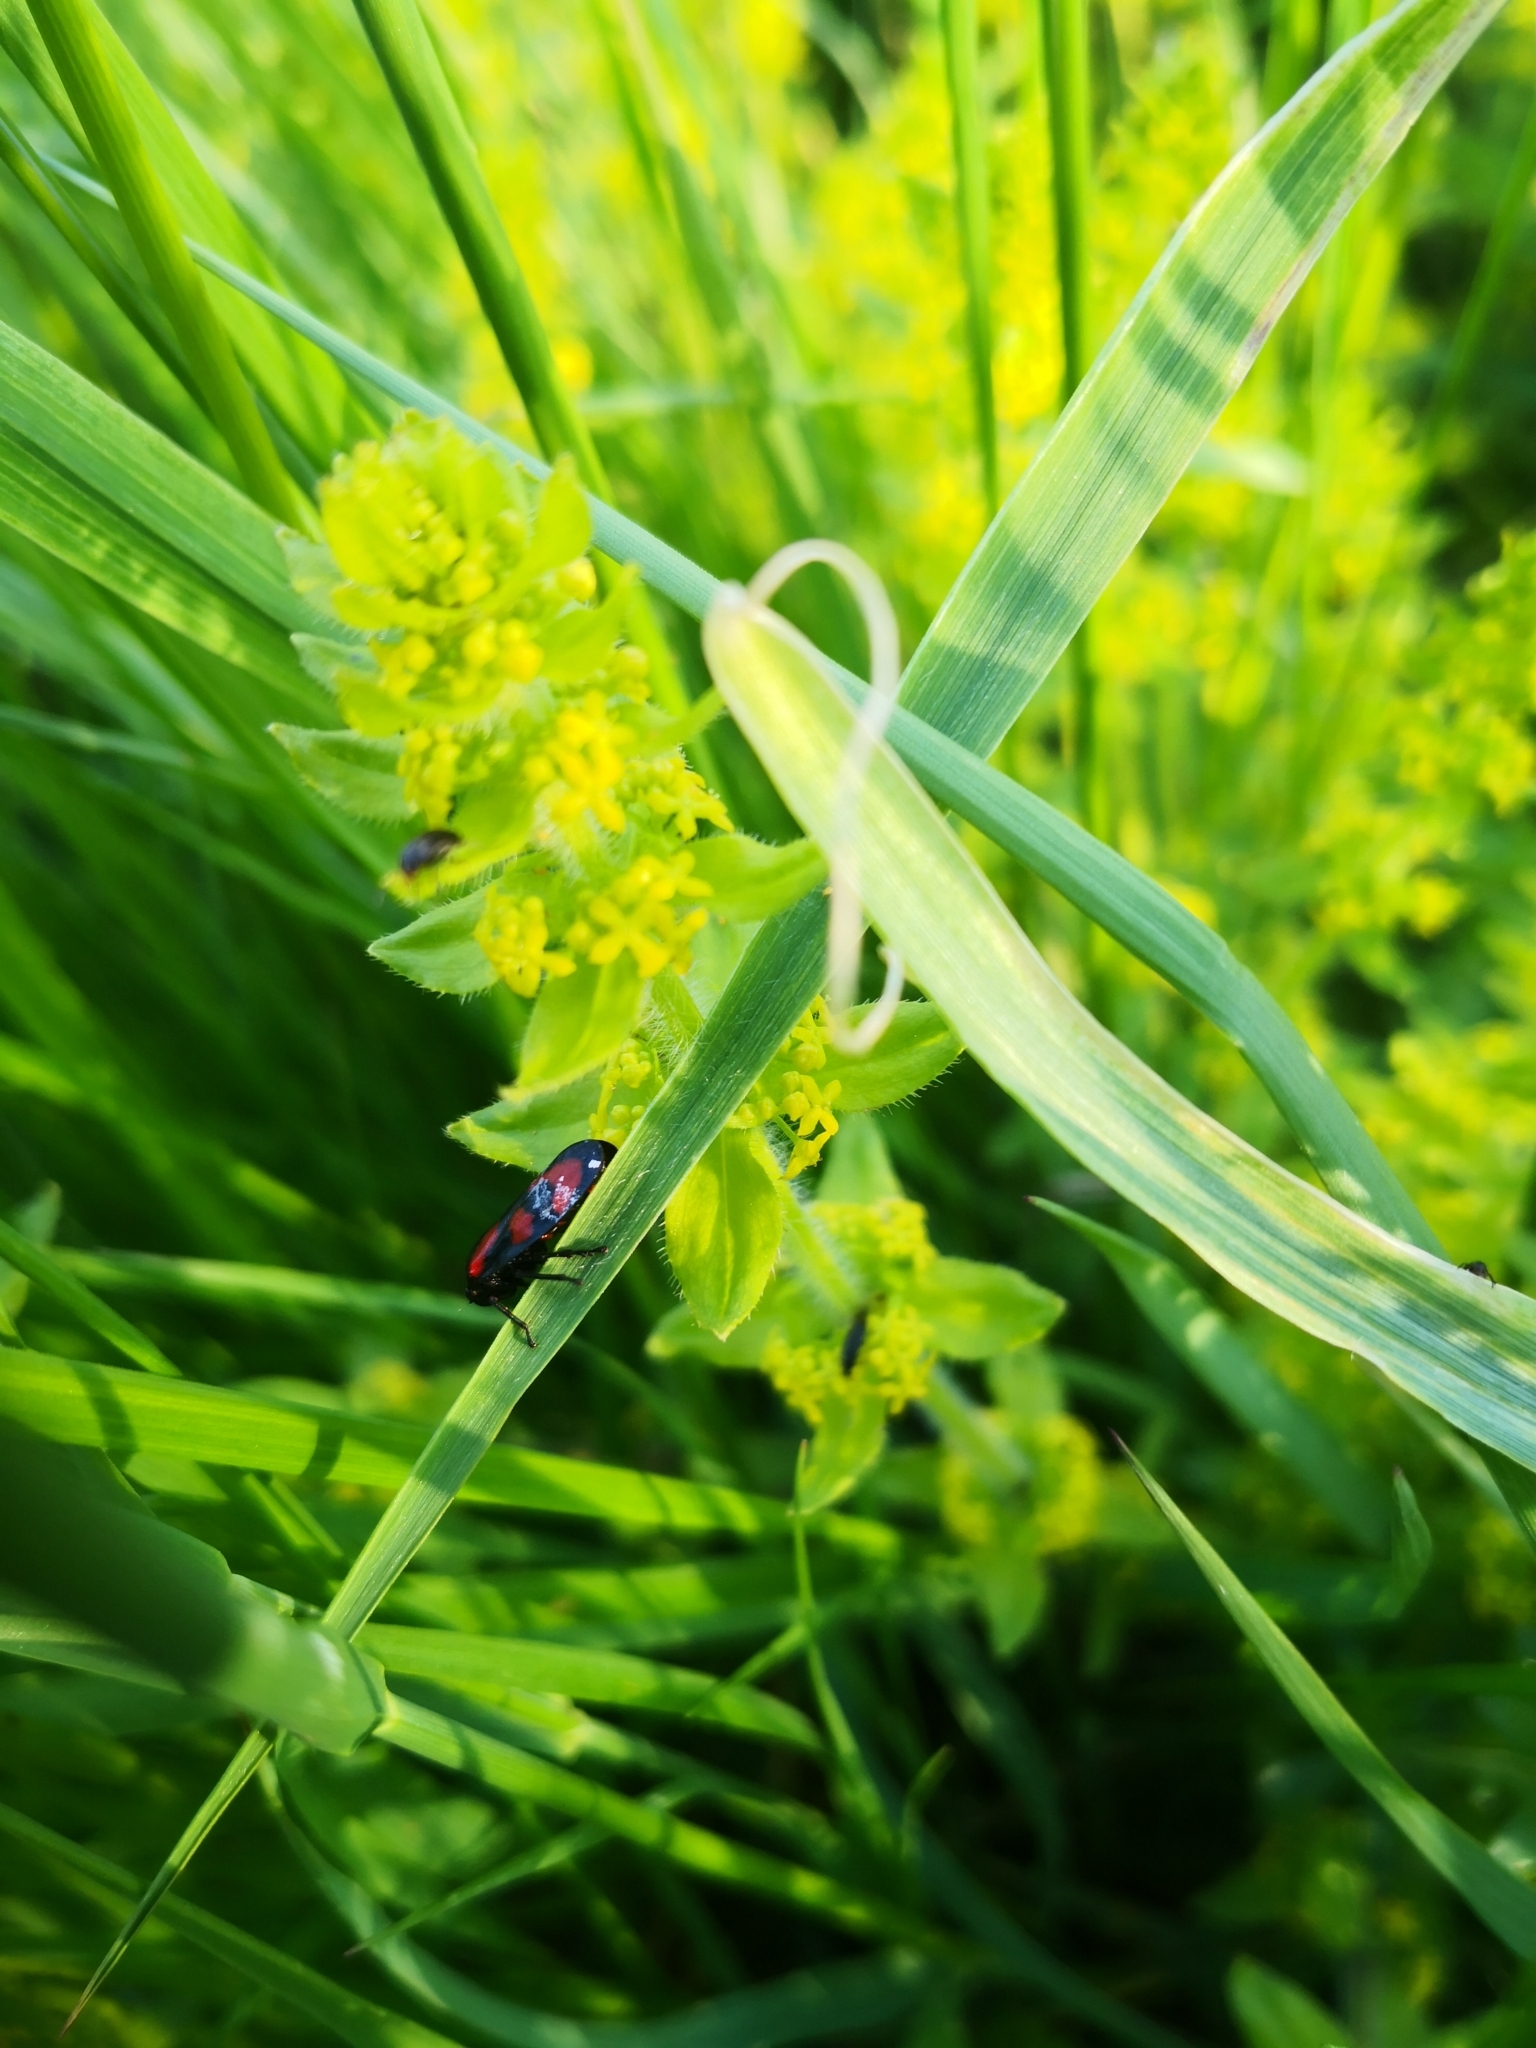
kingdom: Animalia
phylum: Arthropoda
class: Insecta
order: Hemiptera
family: Cercopidae
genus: Cercopis
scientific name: Cercopis vulnerata
